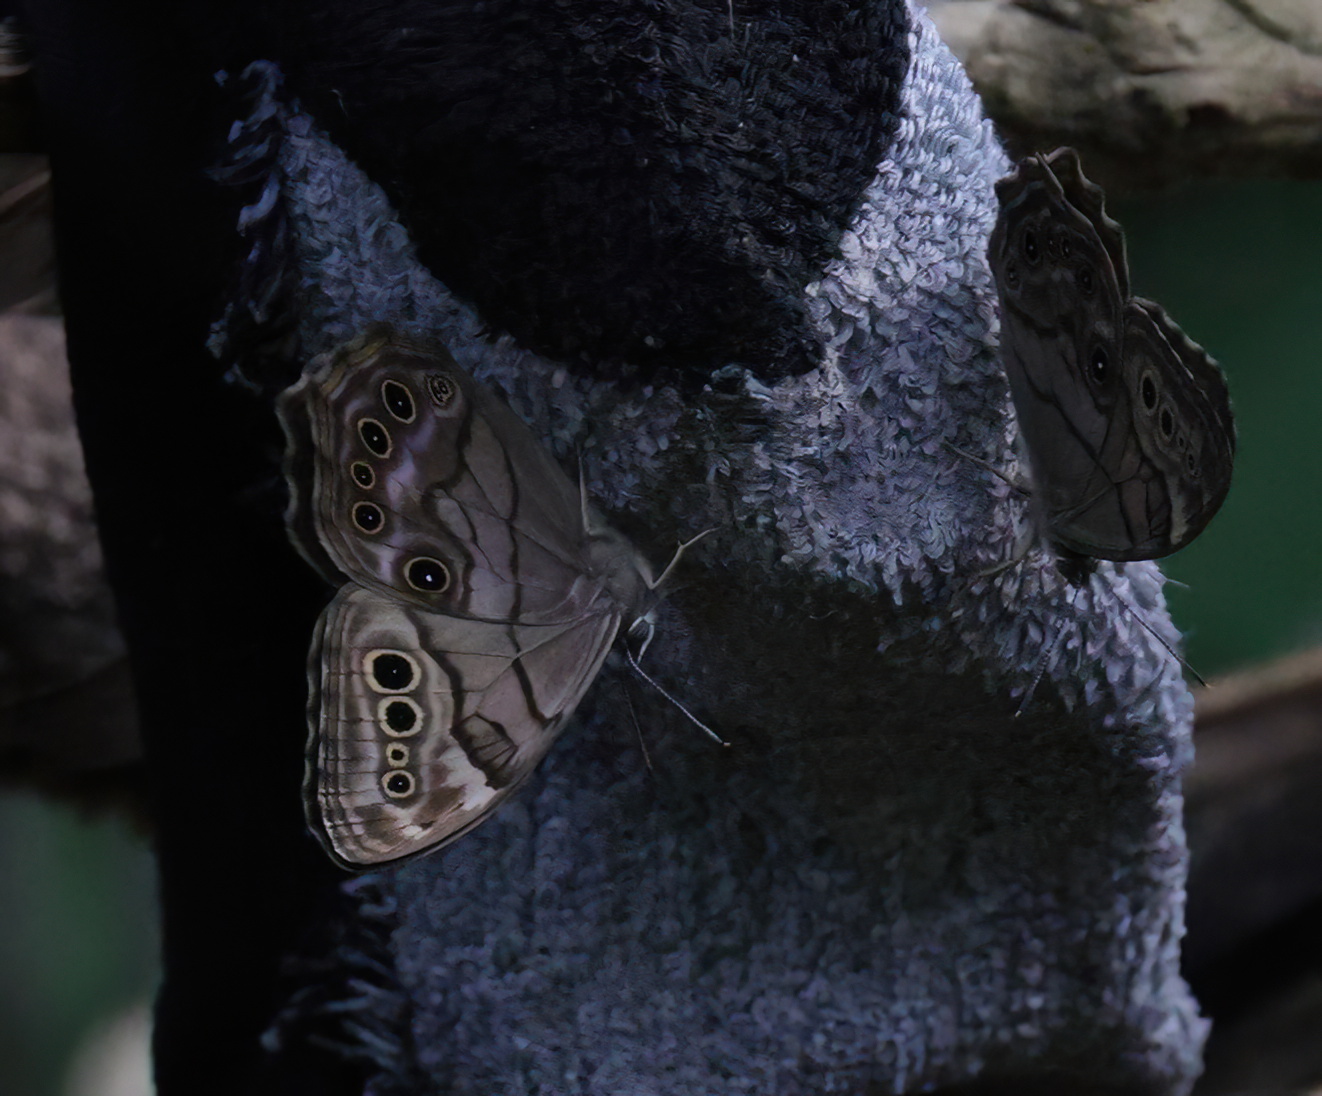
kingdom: Animalia
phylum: Arthropoda
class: Insecta
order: Lepidoptera
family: Nymphalidae
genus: Lethe
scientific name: Lethe anthedon
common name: Northern pearly-eye
